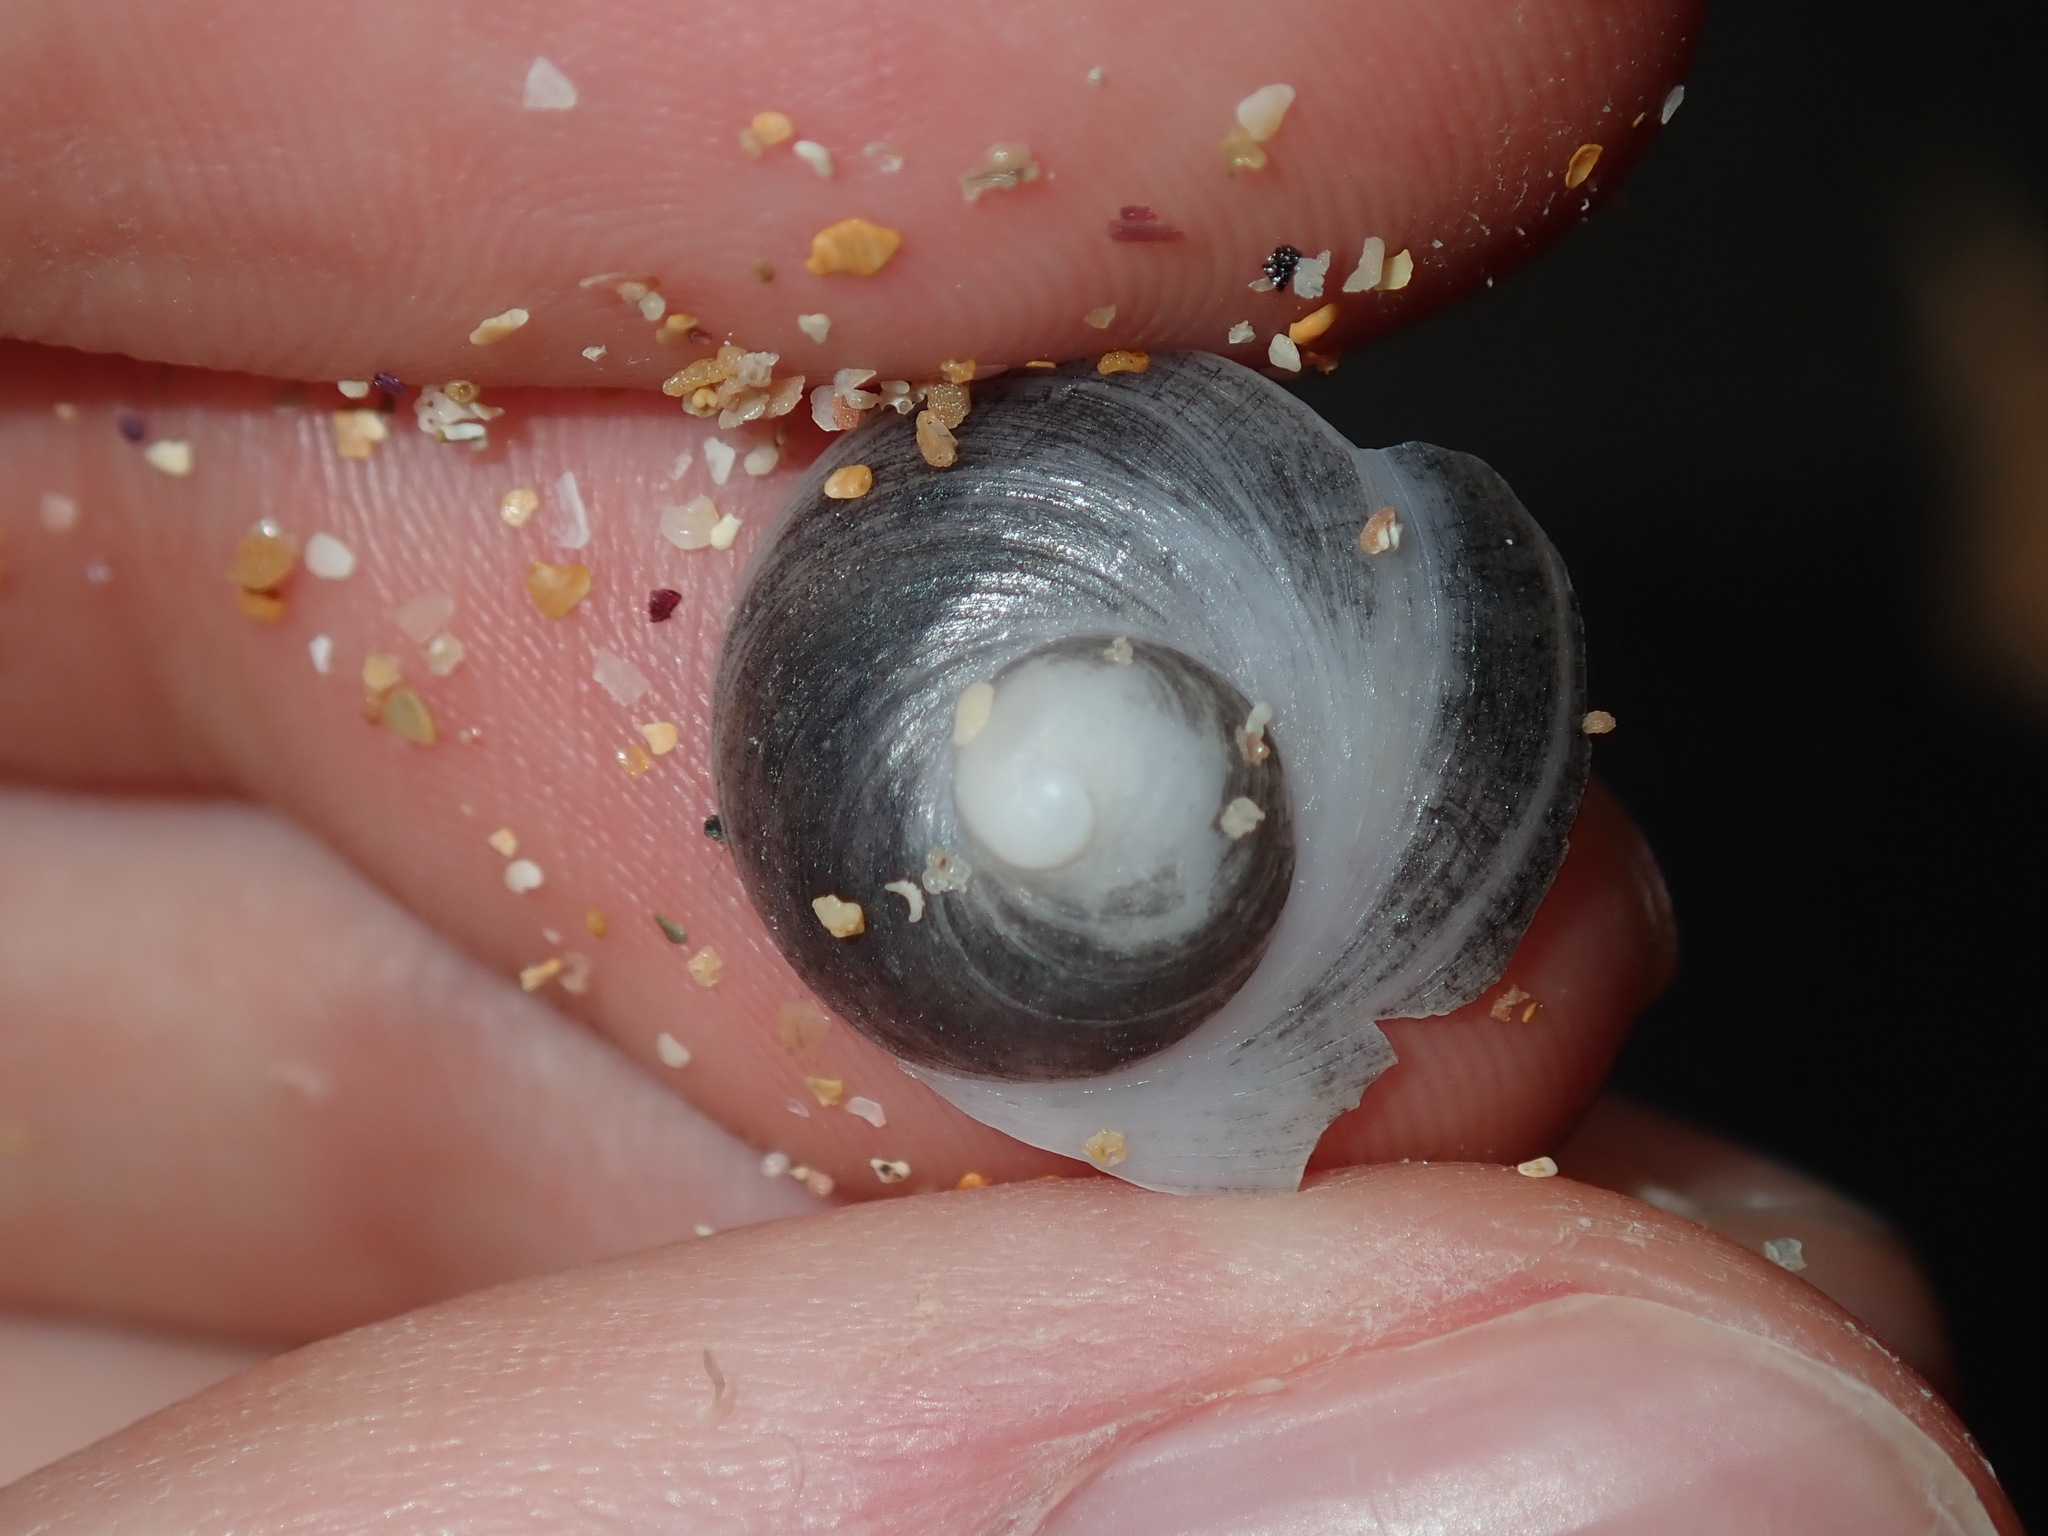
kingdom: Animalia
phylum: Mollusca
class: Gastropoda
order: Littorinimorpha
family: Calyptraeidae
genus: Sigapatella
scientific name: Sigapatella calyptraeformis
